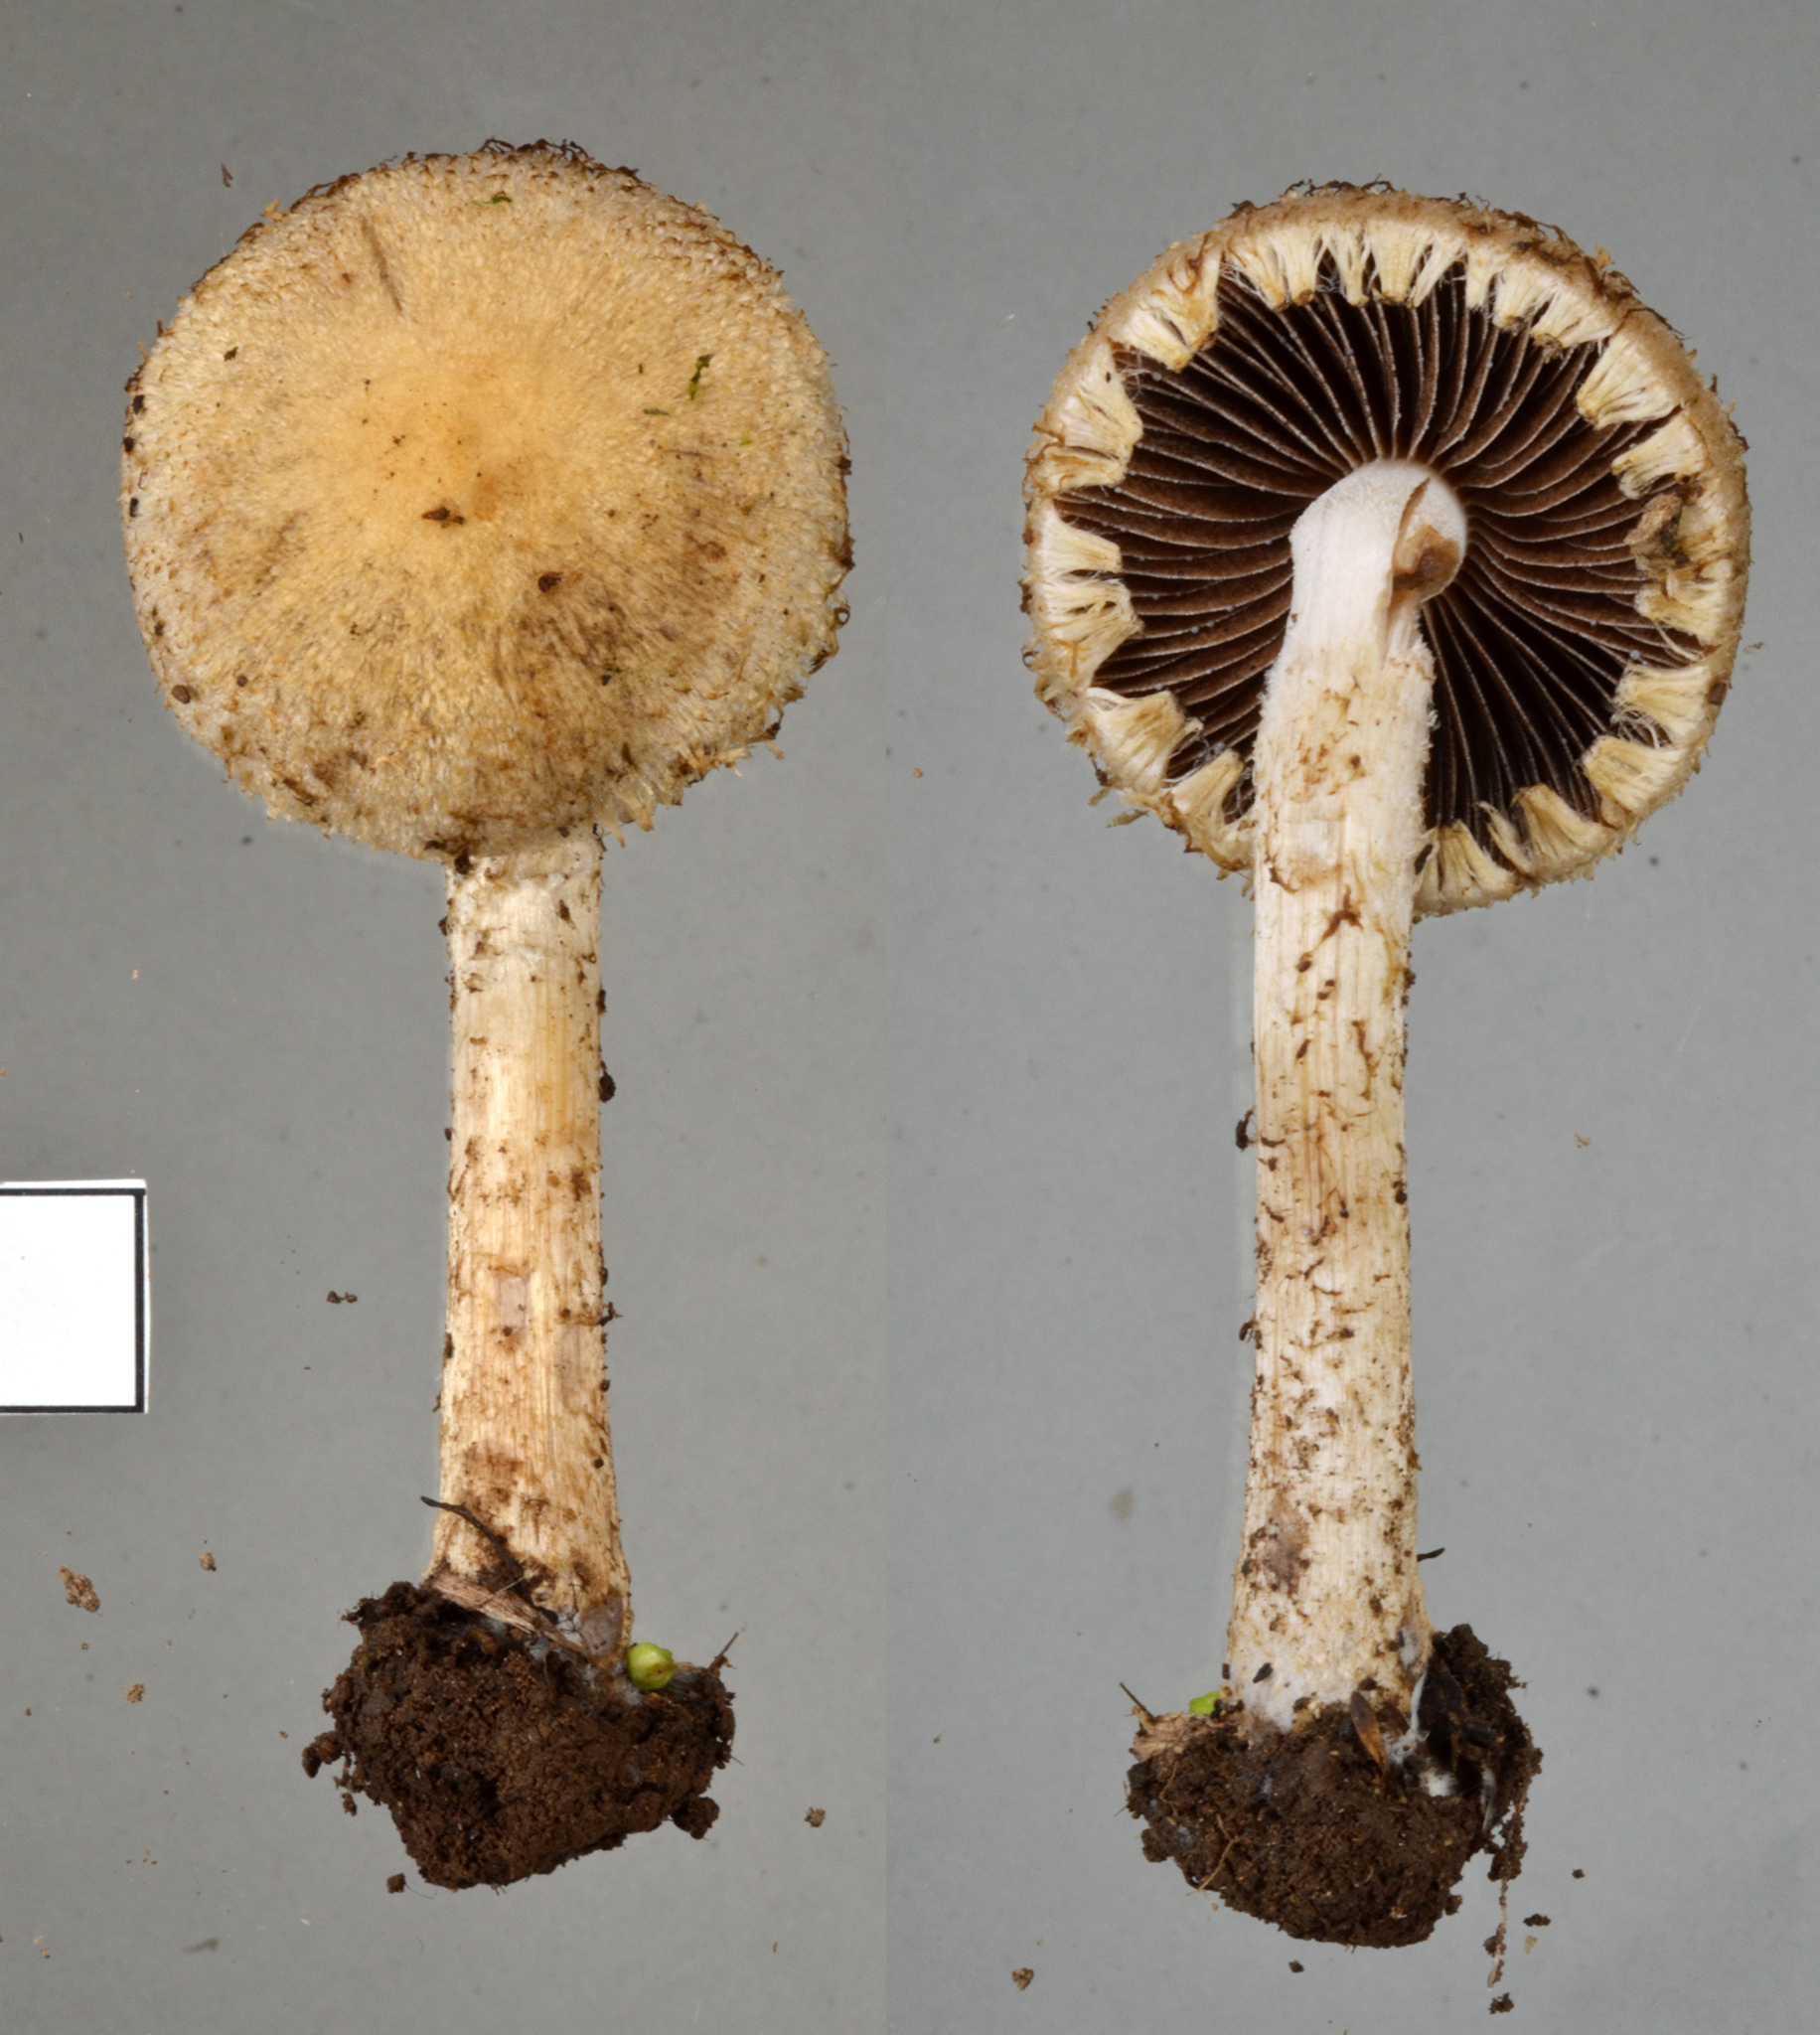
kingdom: Fungi
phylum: Basidiomycota
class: Agaricomycetes
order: Agaricales
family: Psathyrellaceae
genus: Psathyrella
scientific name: Psathyrella asperospora
